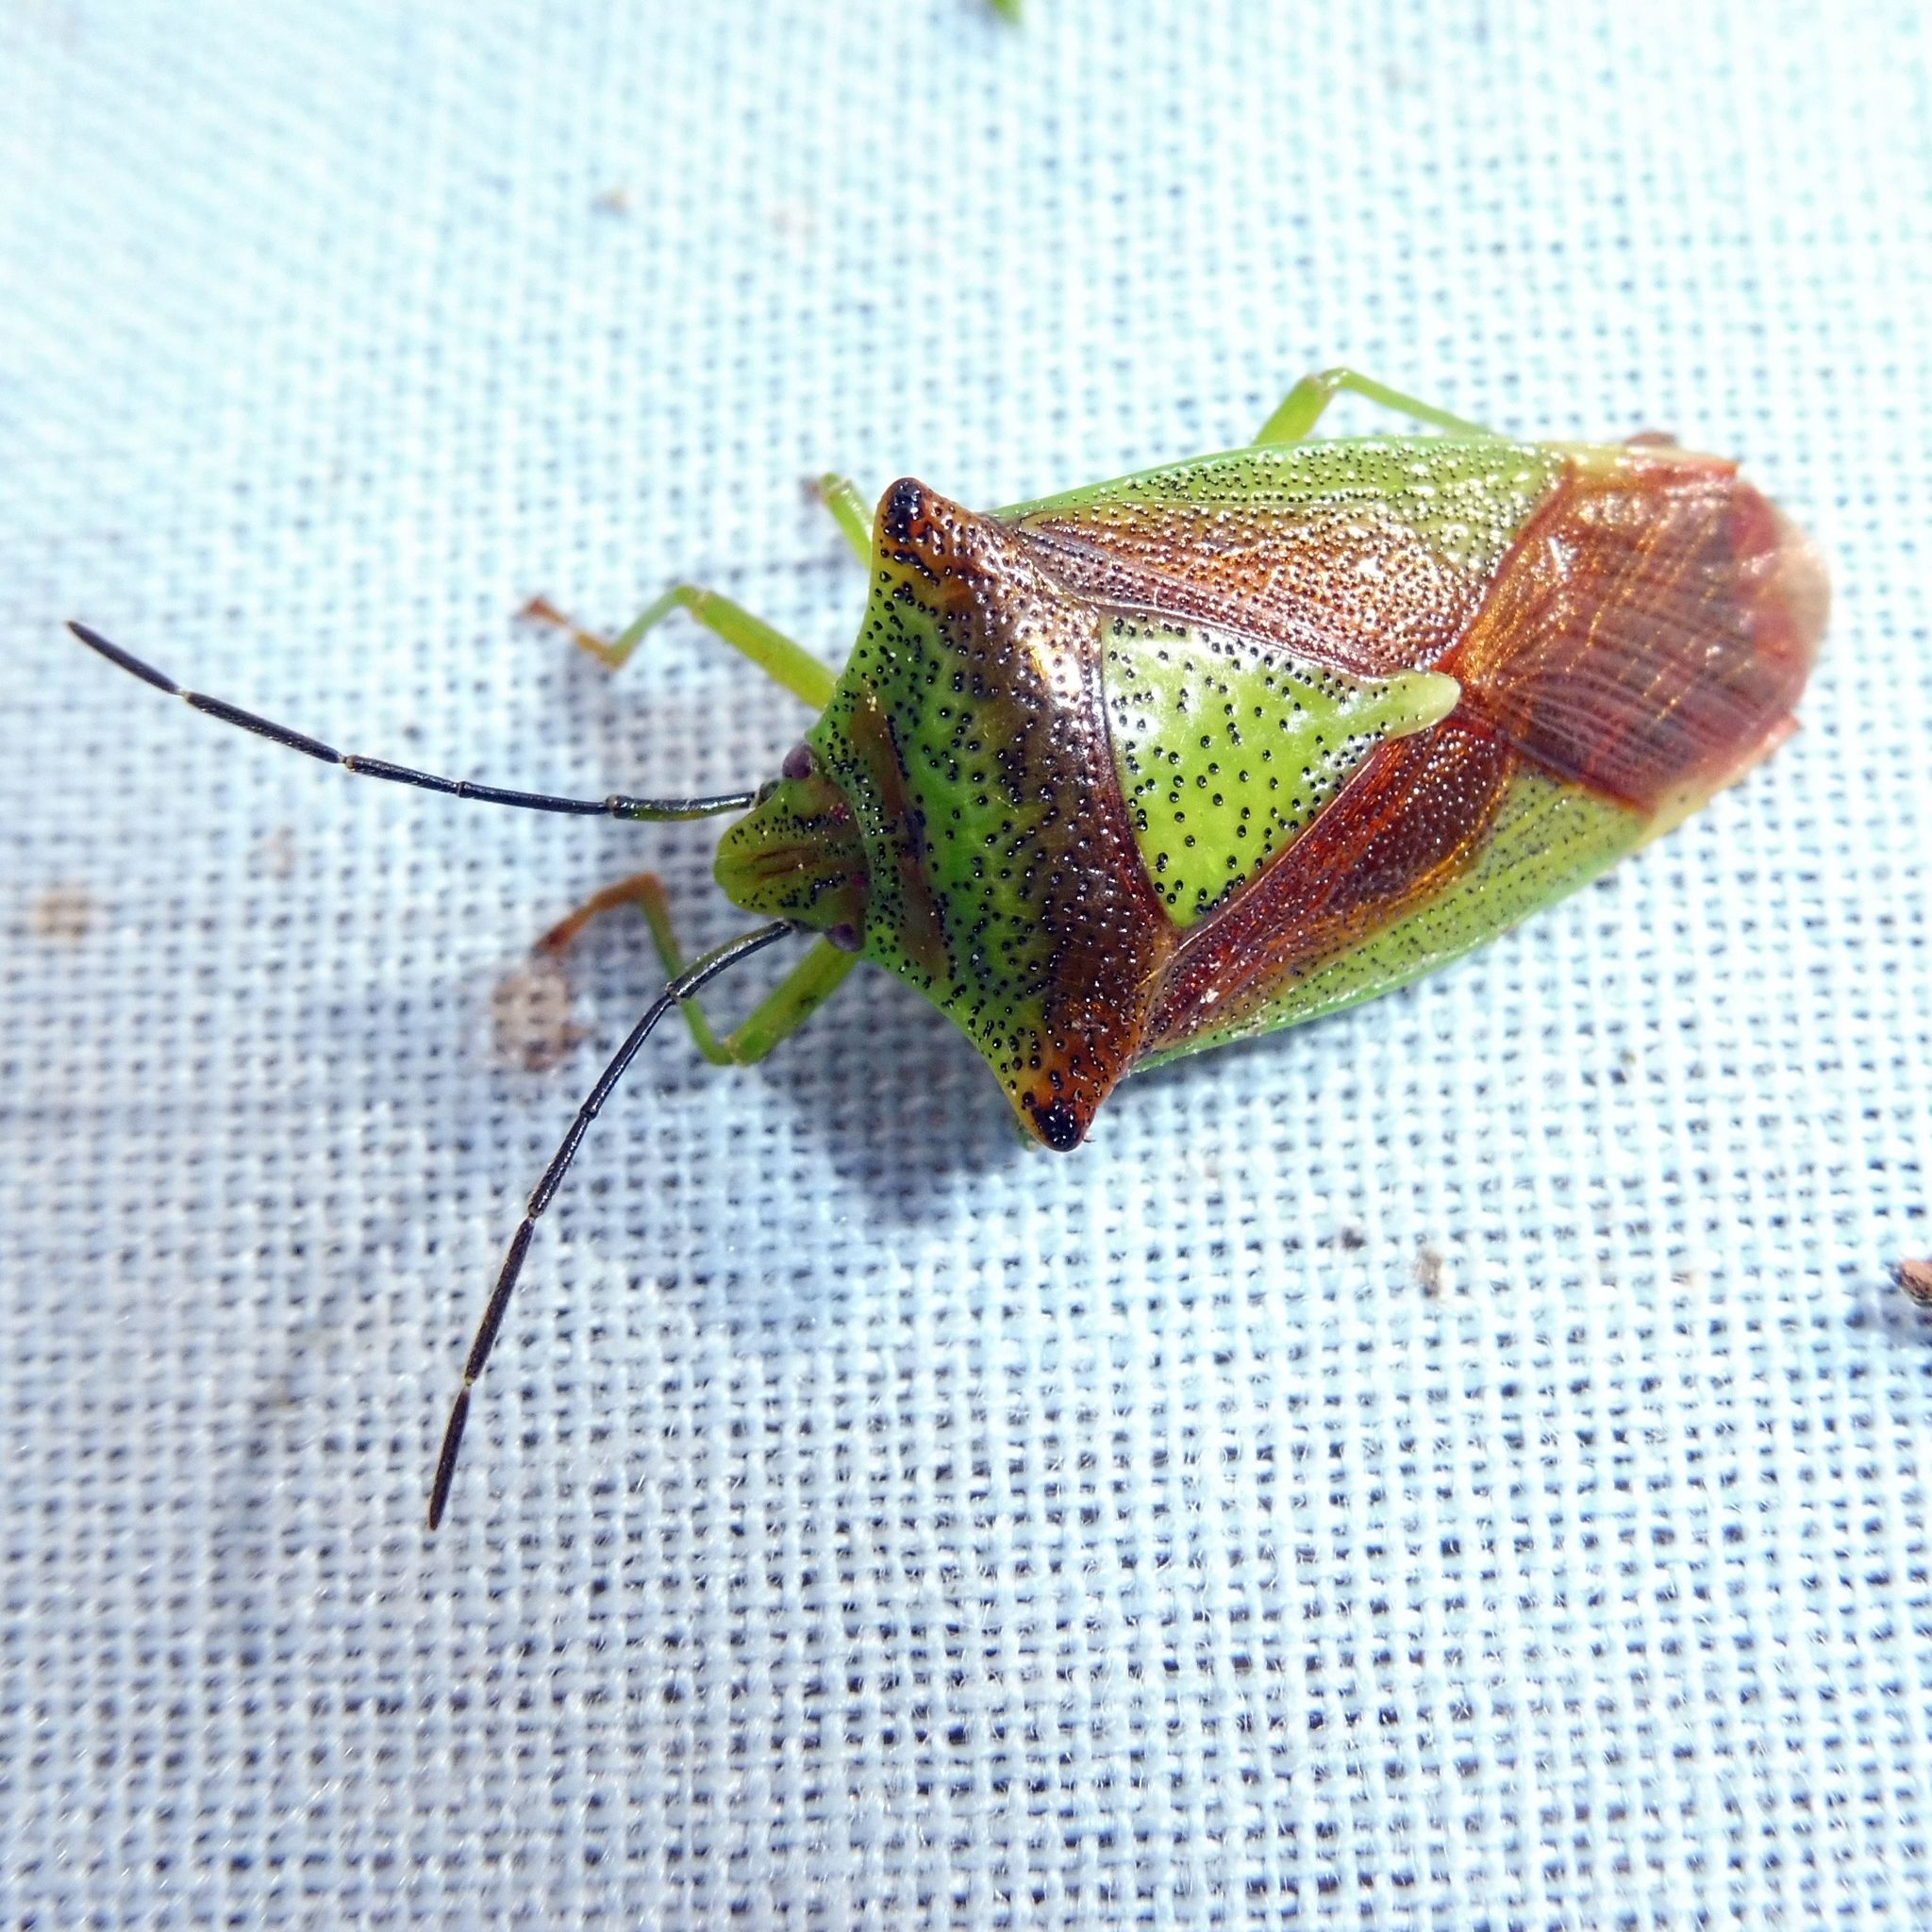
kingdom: Animalia
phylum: Arthropoda
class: Insecta
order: Hemiptera
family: Acanthosomatidae
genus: Acanthosoma
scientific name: Acanthosoma haemorrhoidale
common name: Hawthorn shieldbug
